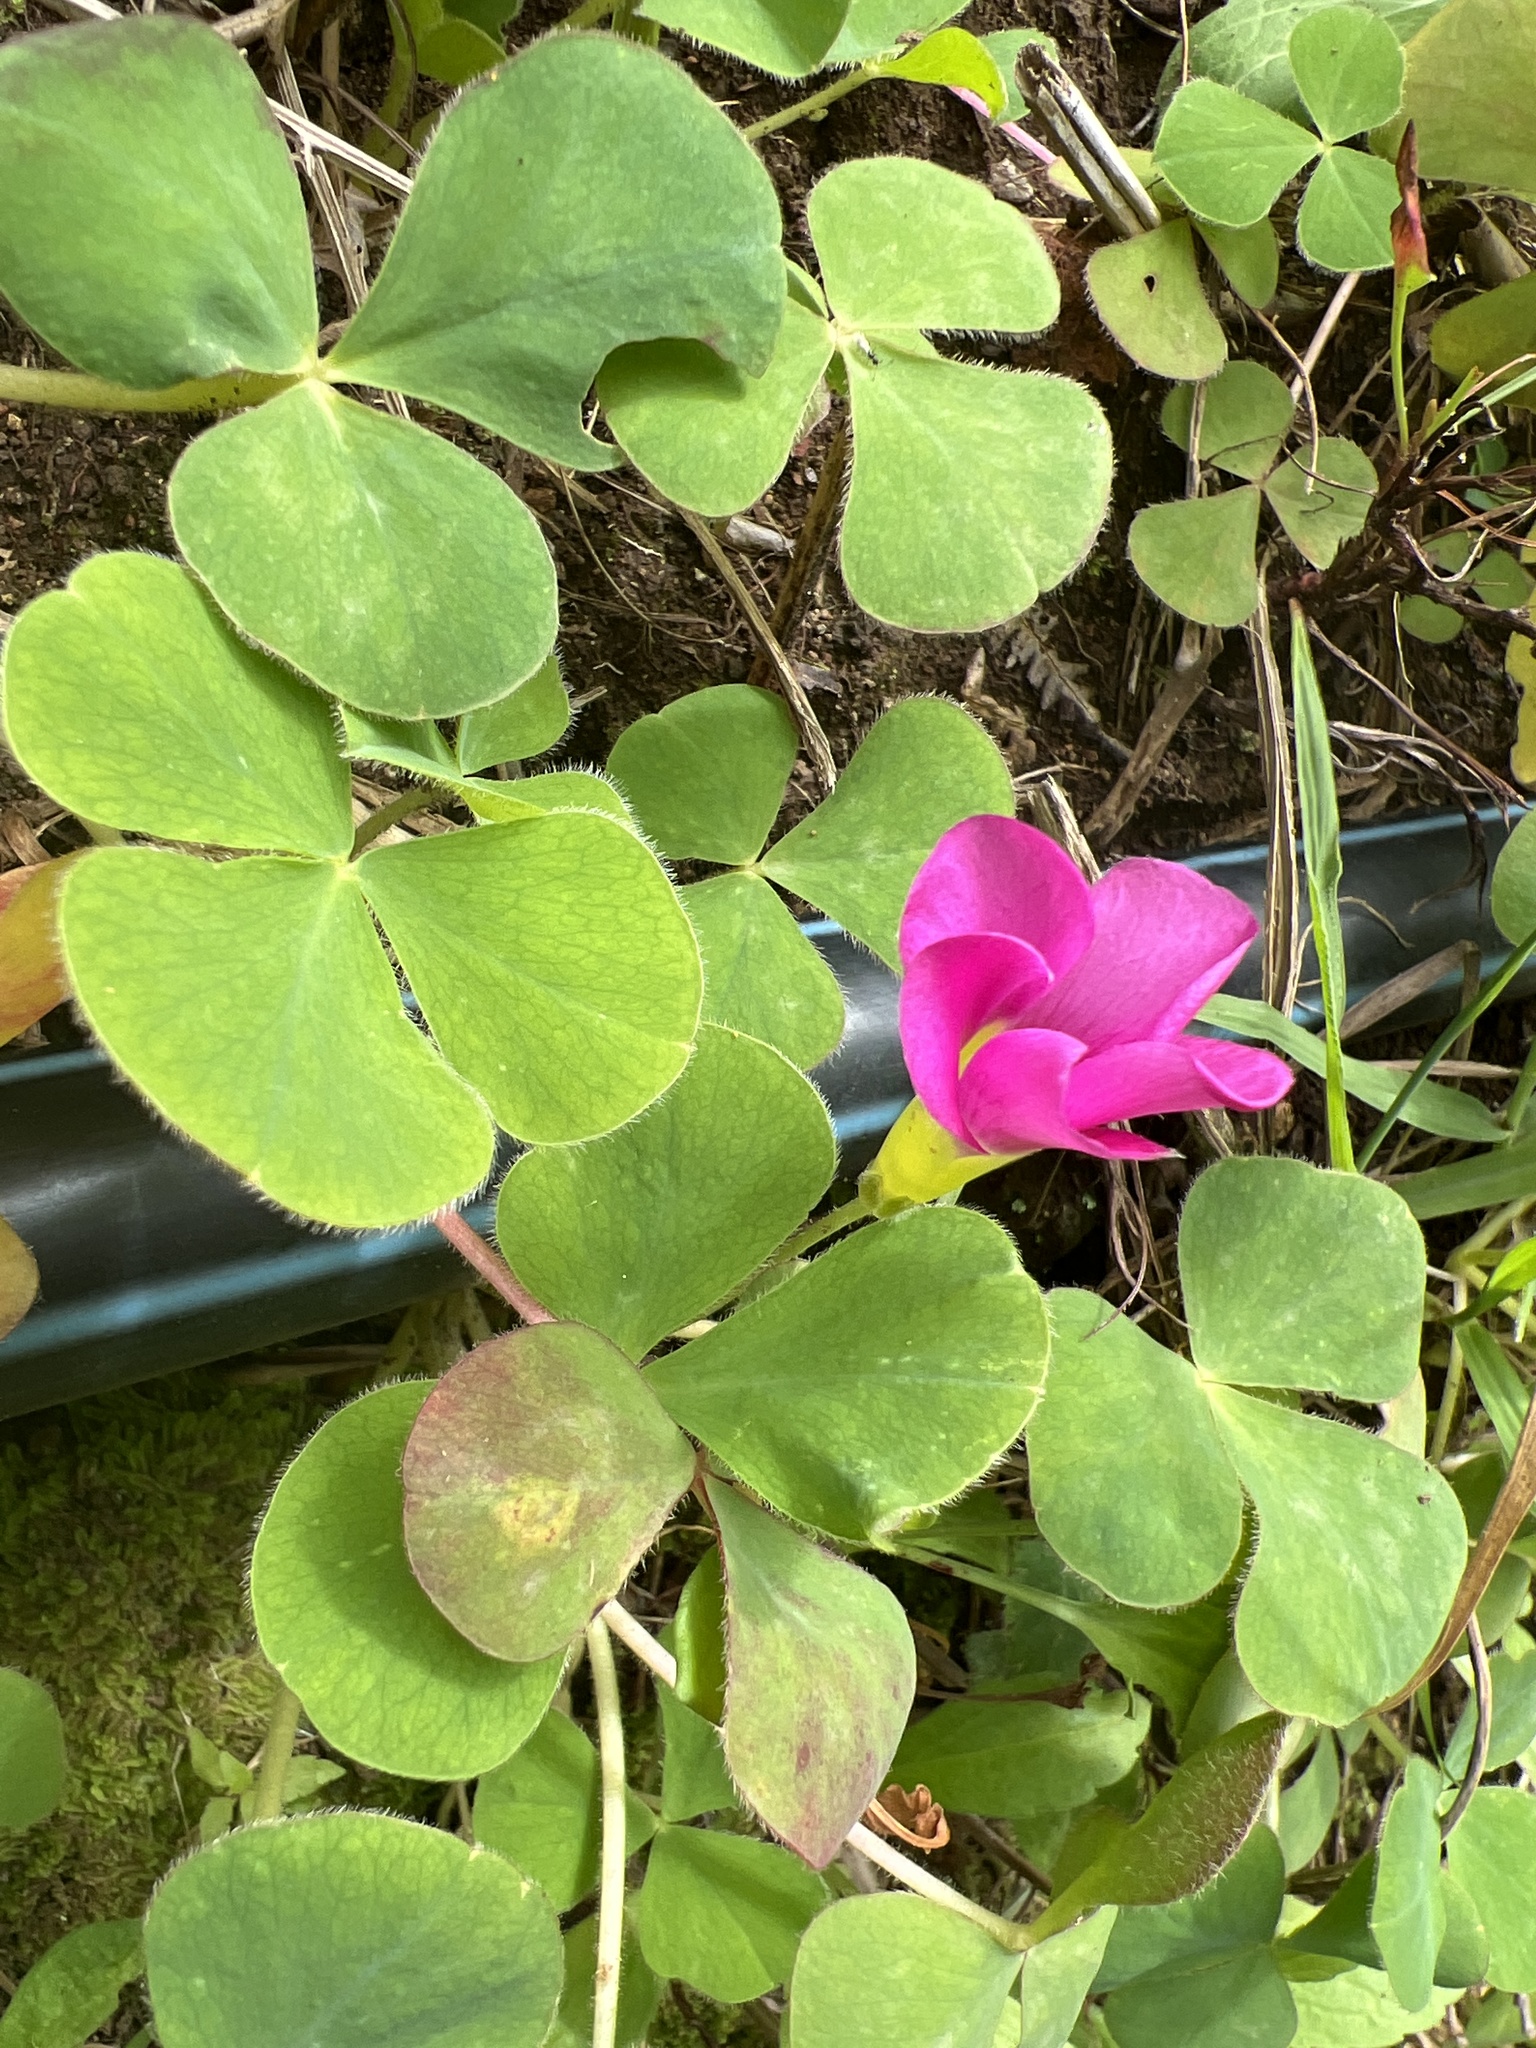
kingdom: Plantae
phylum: Tracheophyta
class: Magnoliopsida
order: Oxalidales
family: Oxalidaceae
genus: Oxalis
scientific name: Oxalis purpurea
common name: Purple woodsorrel
